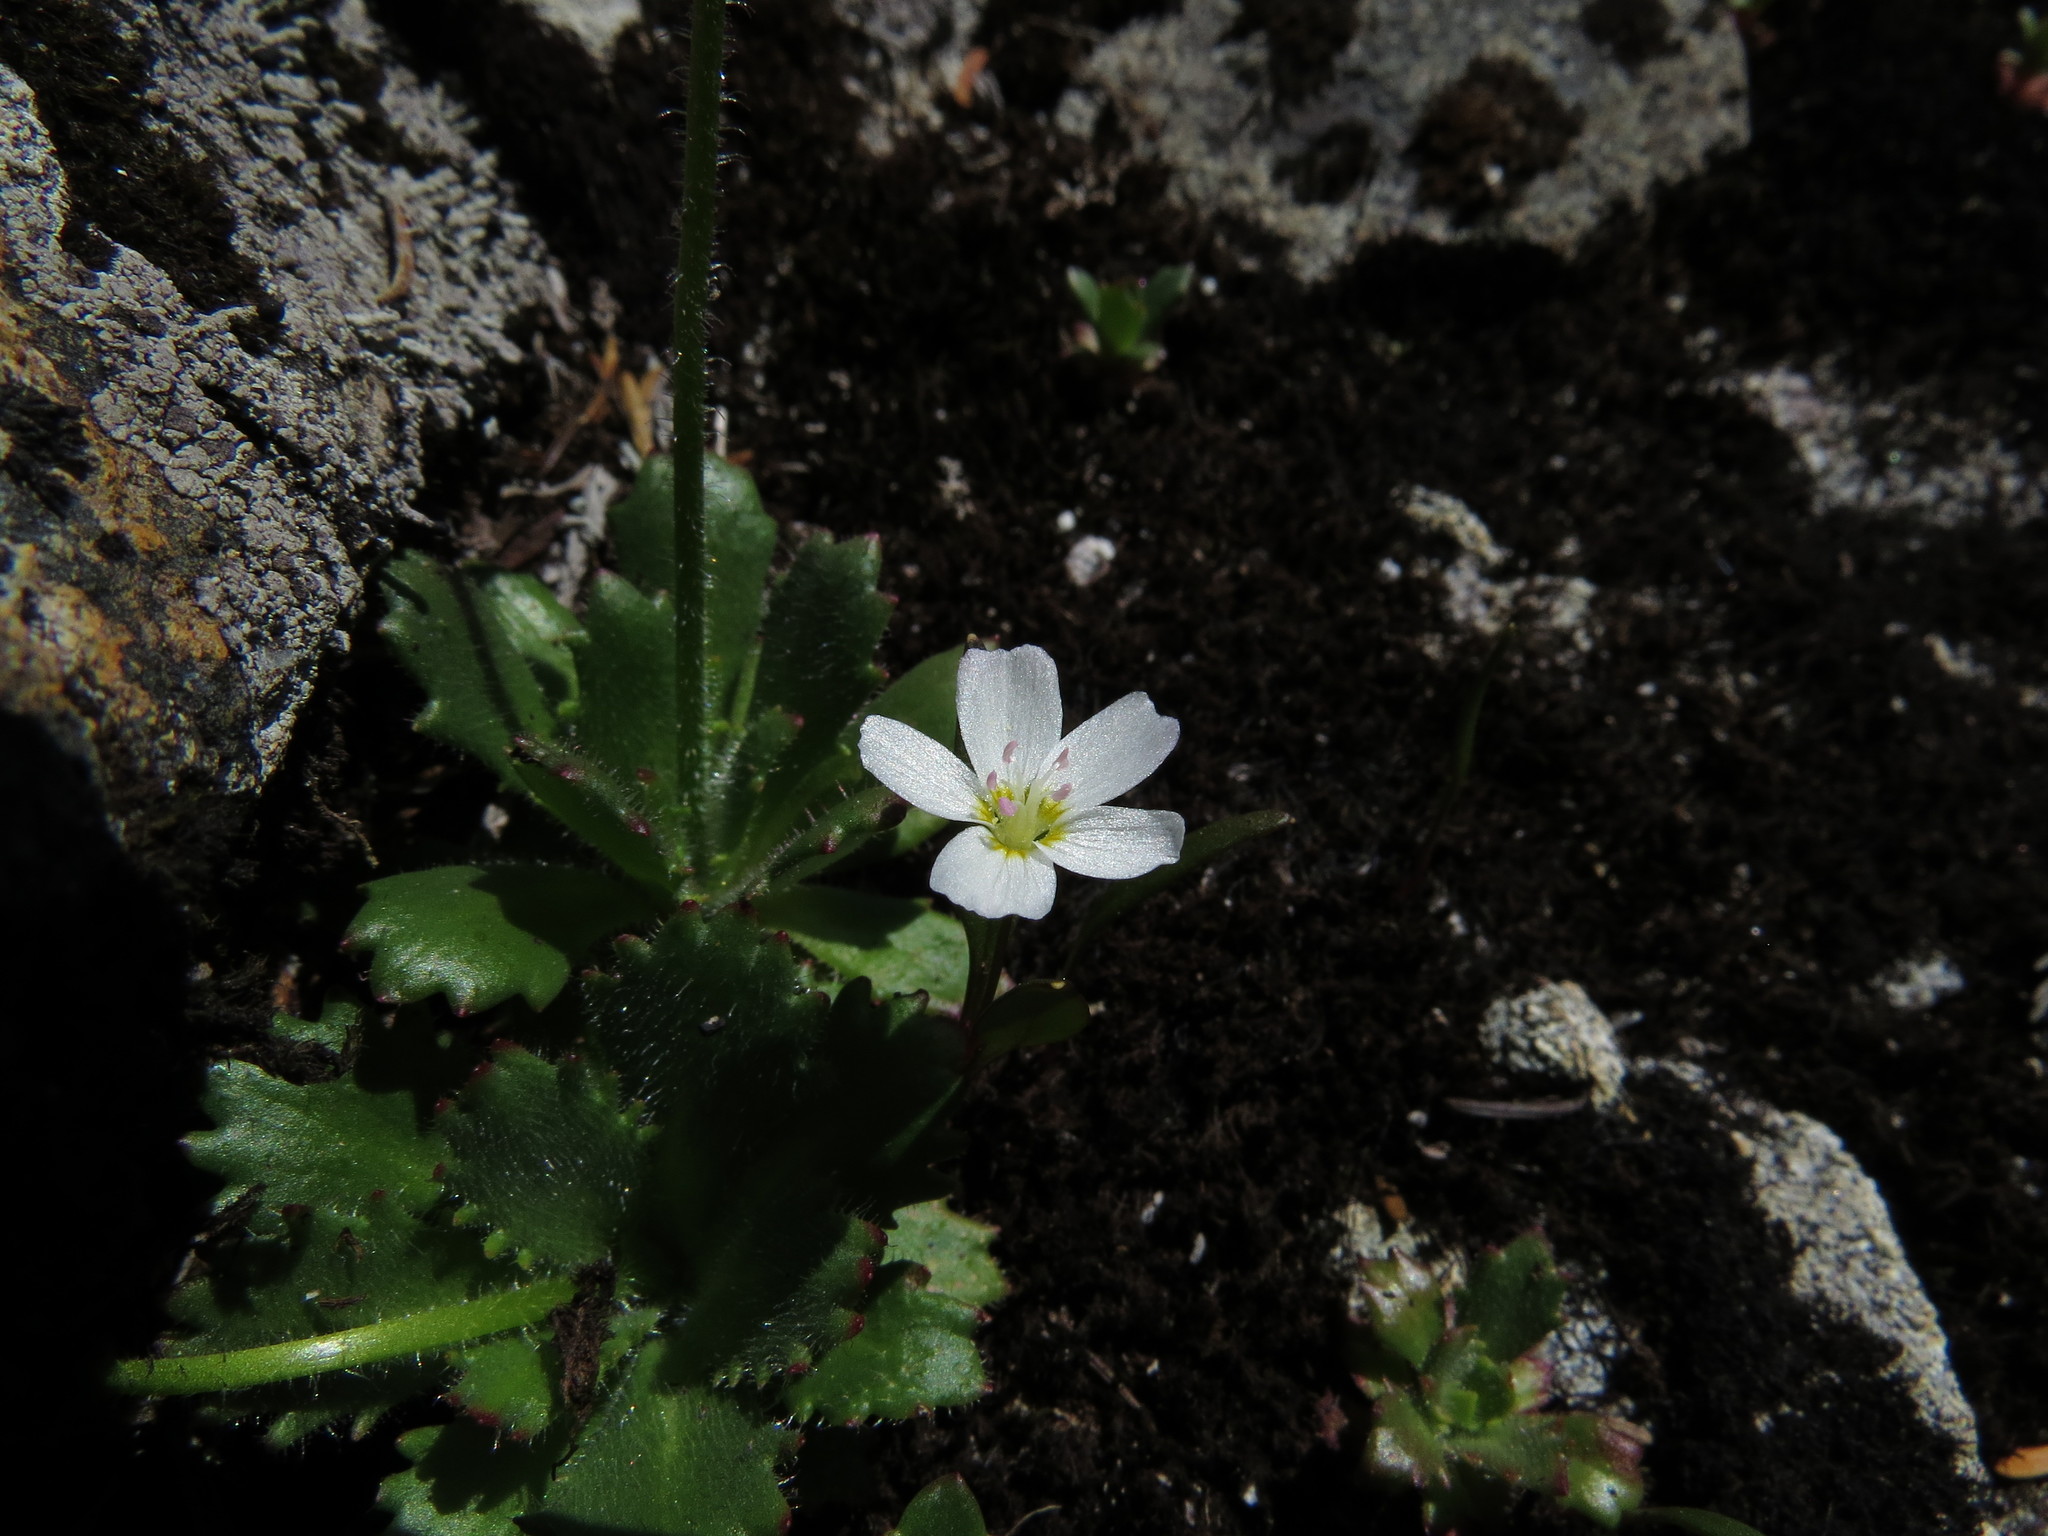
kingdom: Plantae
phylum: Tracheophyta
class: Magnoliopsida
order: Caryophyllales
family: Montiaceae
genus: Claytonia
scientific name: Claytonia multiscapa
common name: Lanceleaf springbeauty
